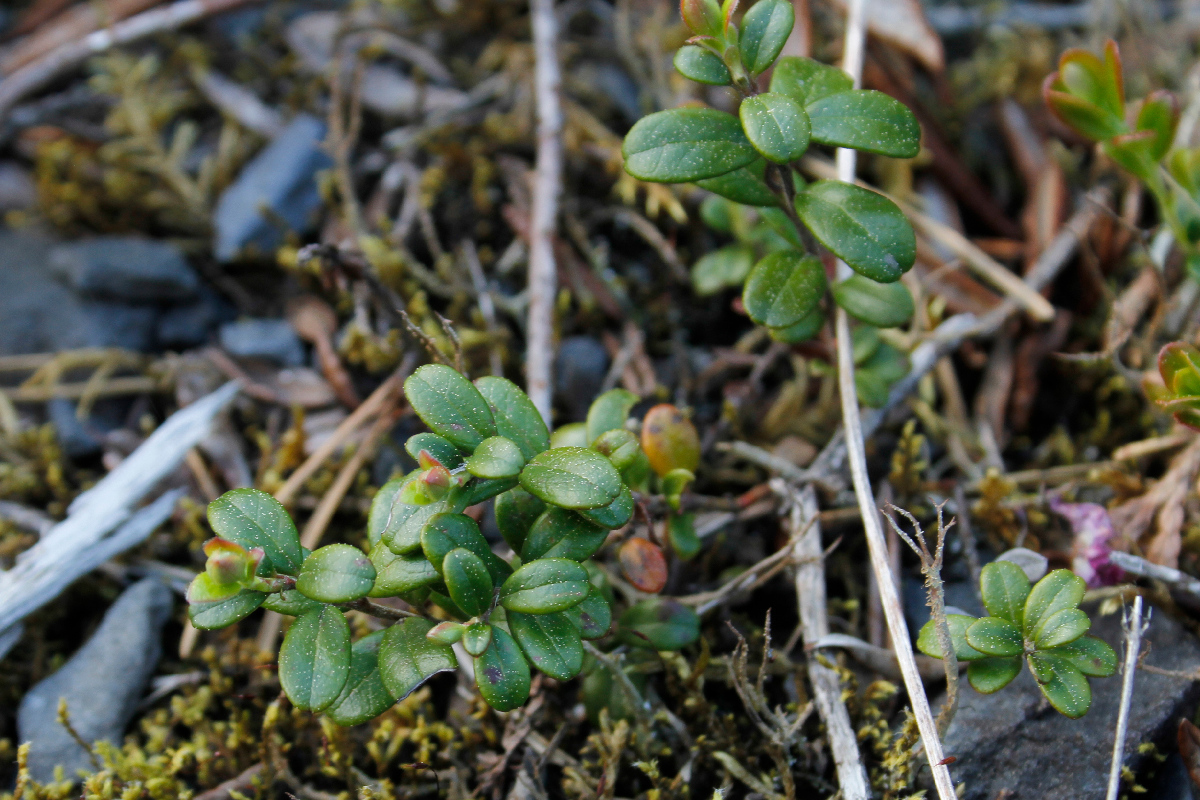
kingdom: Plantae
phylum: Tracheophyta
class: Magnoliopsida
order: Ericales
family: Ericaceae
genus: Vaccinium
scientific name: Vaccinium vitis-idaea
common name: Cowberry
